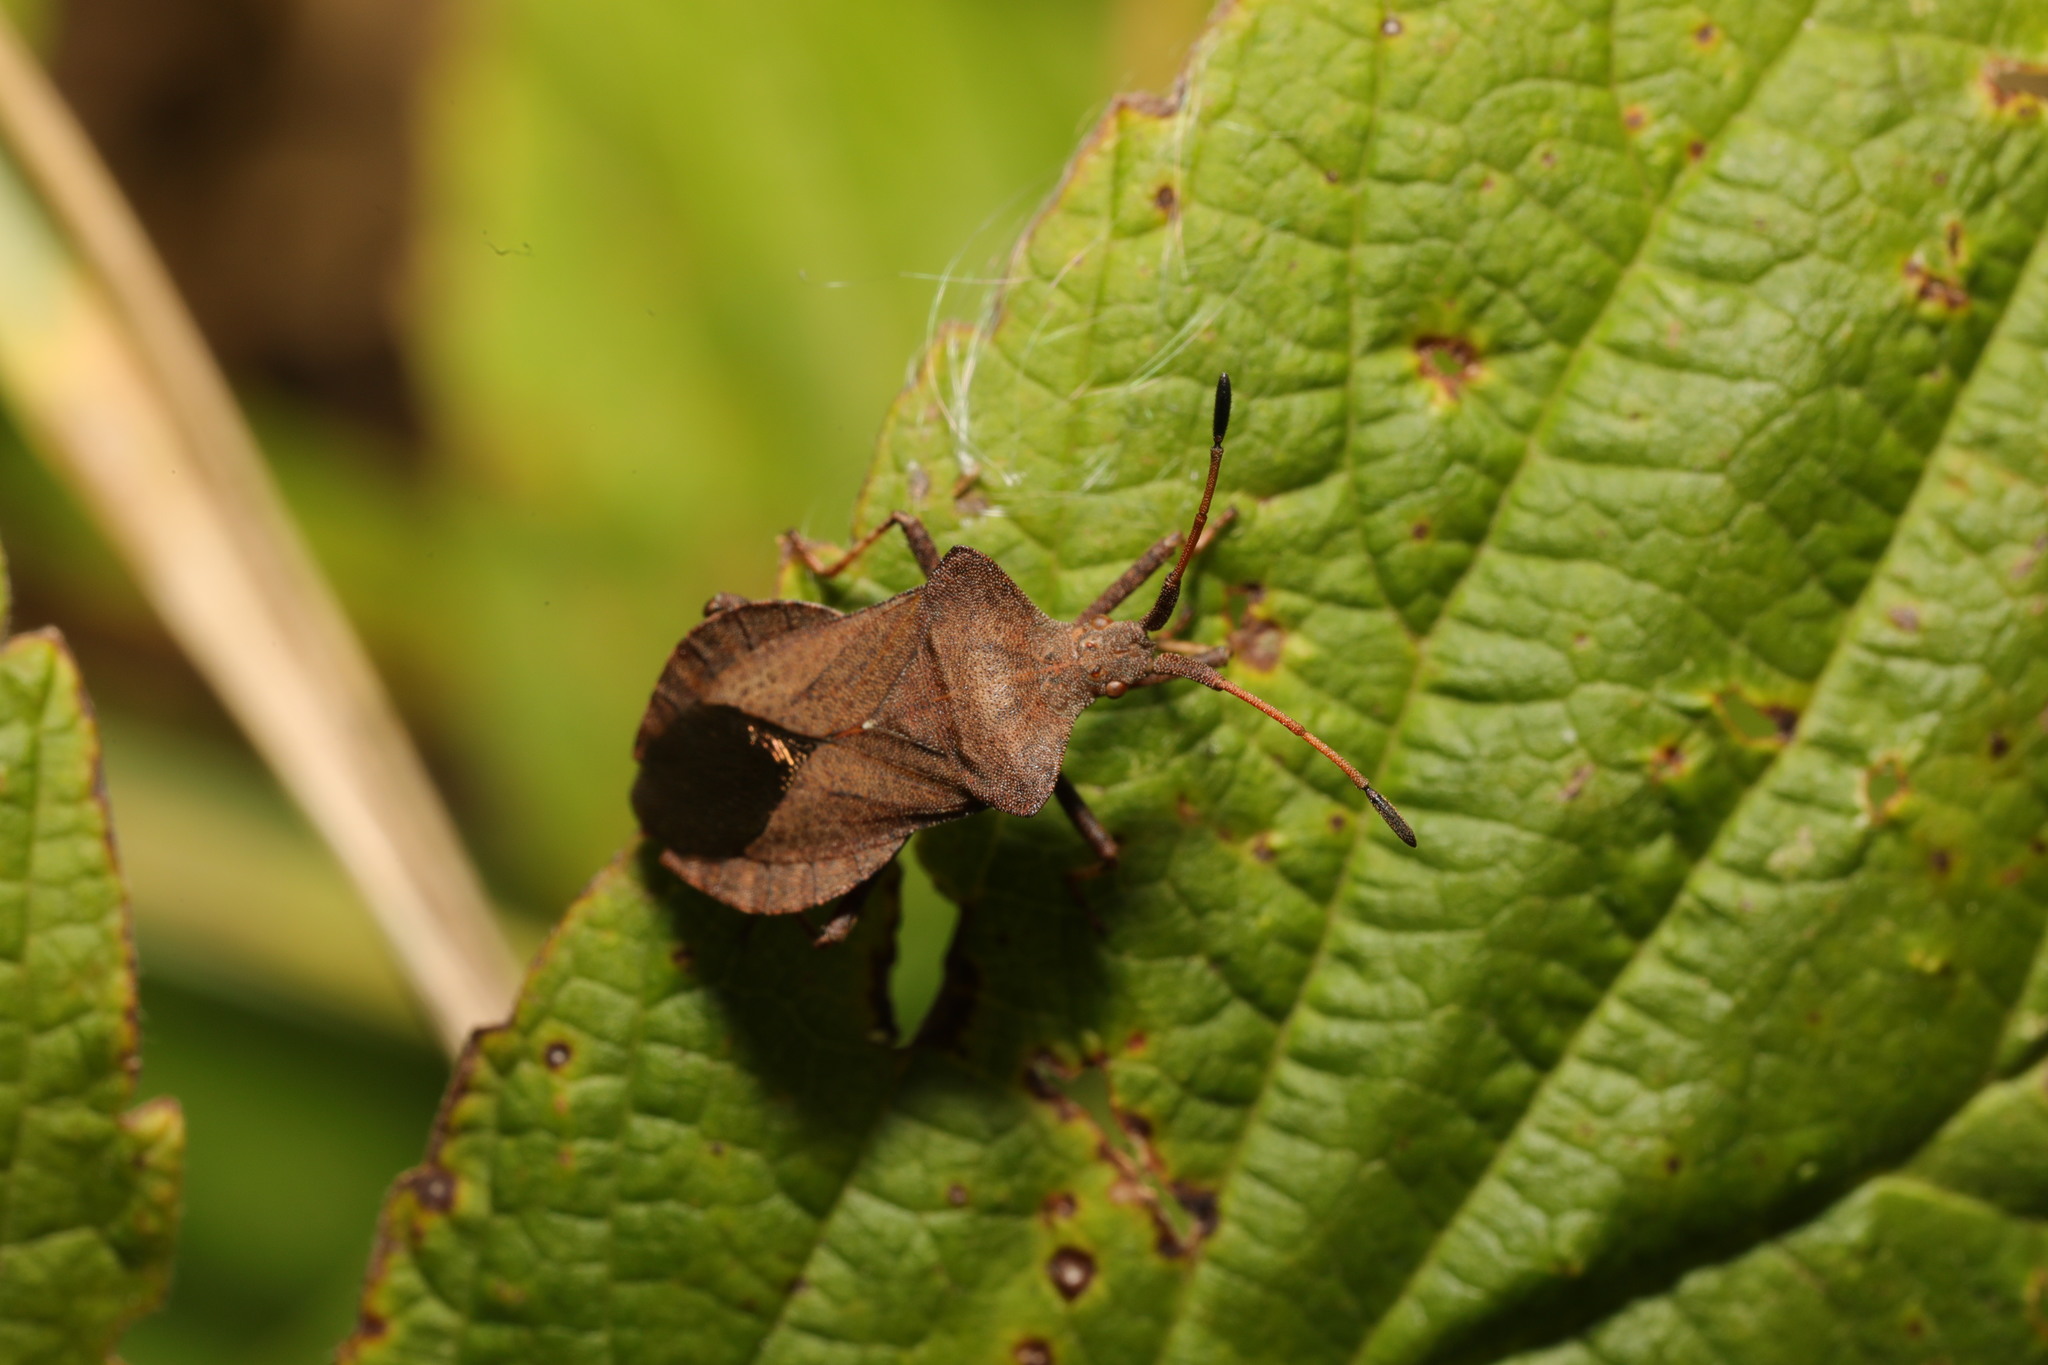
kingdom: Animalia
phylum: Arthropoda
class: Insecta
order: Hemiptera
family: Coreidae
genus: Coreus
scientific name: Coreus marginatus
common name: Dock bug
